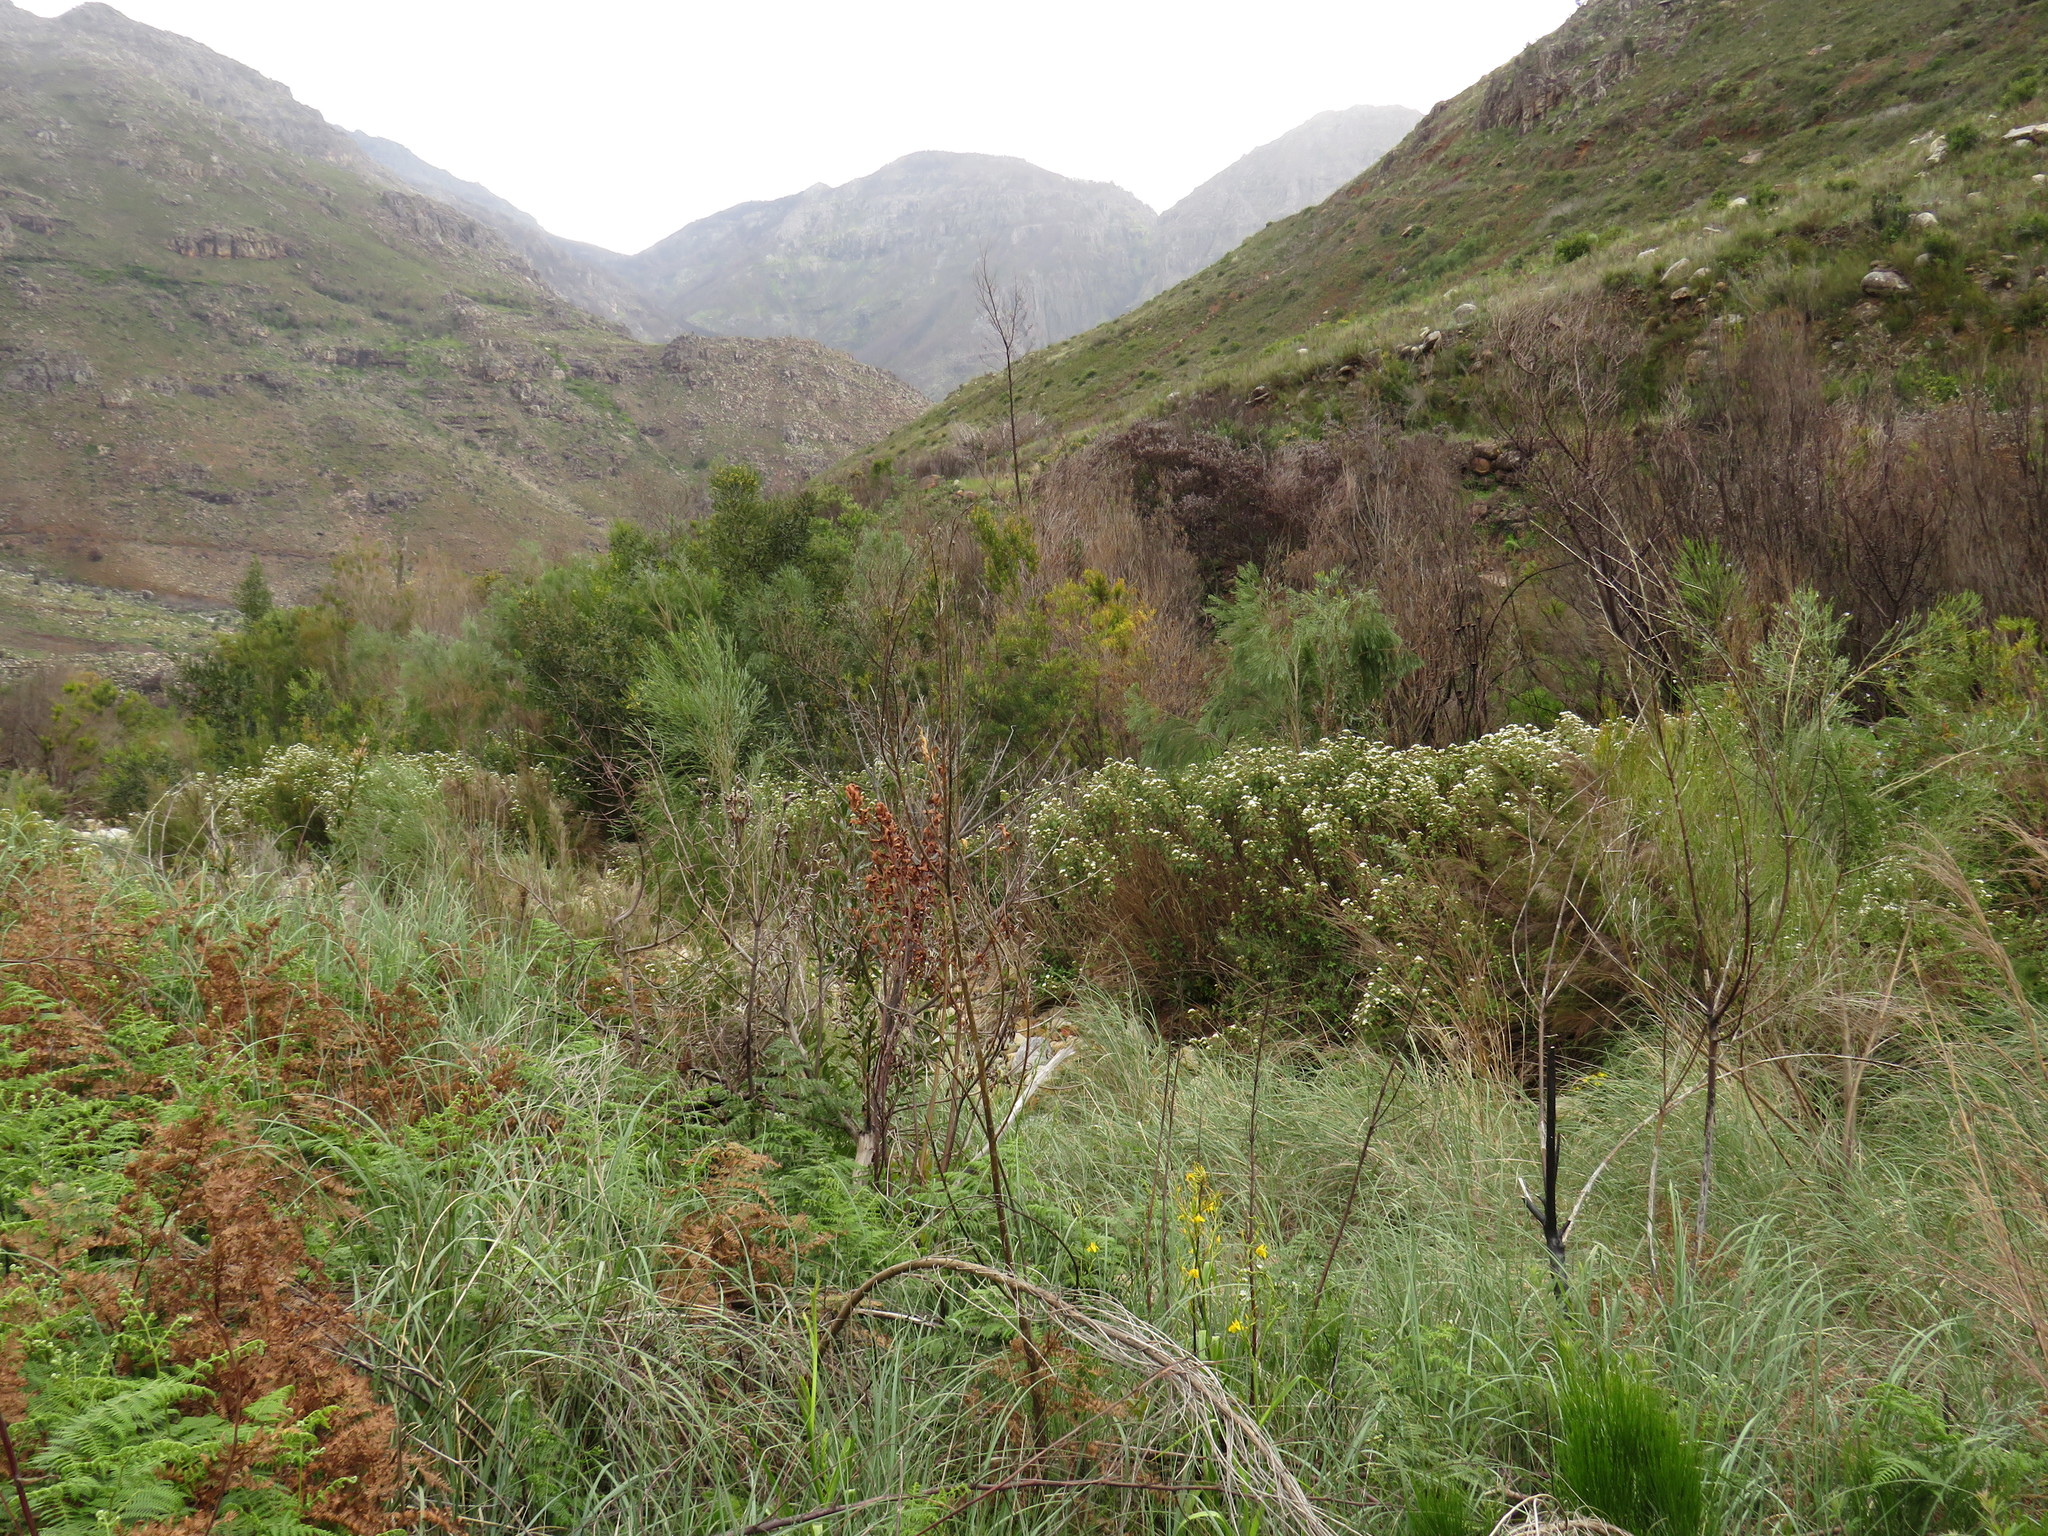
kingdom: Plantae
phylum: Tracheophyta
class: Magnoliopsida
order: Asterales
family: Asteraceae
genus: Ageratina
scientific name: Ageratina adenophora
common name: Sticky snakeroot
